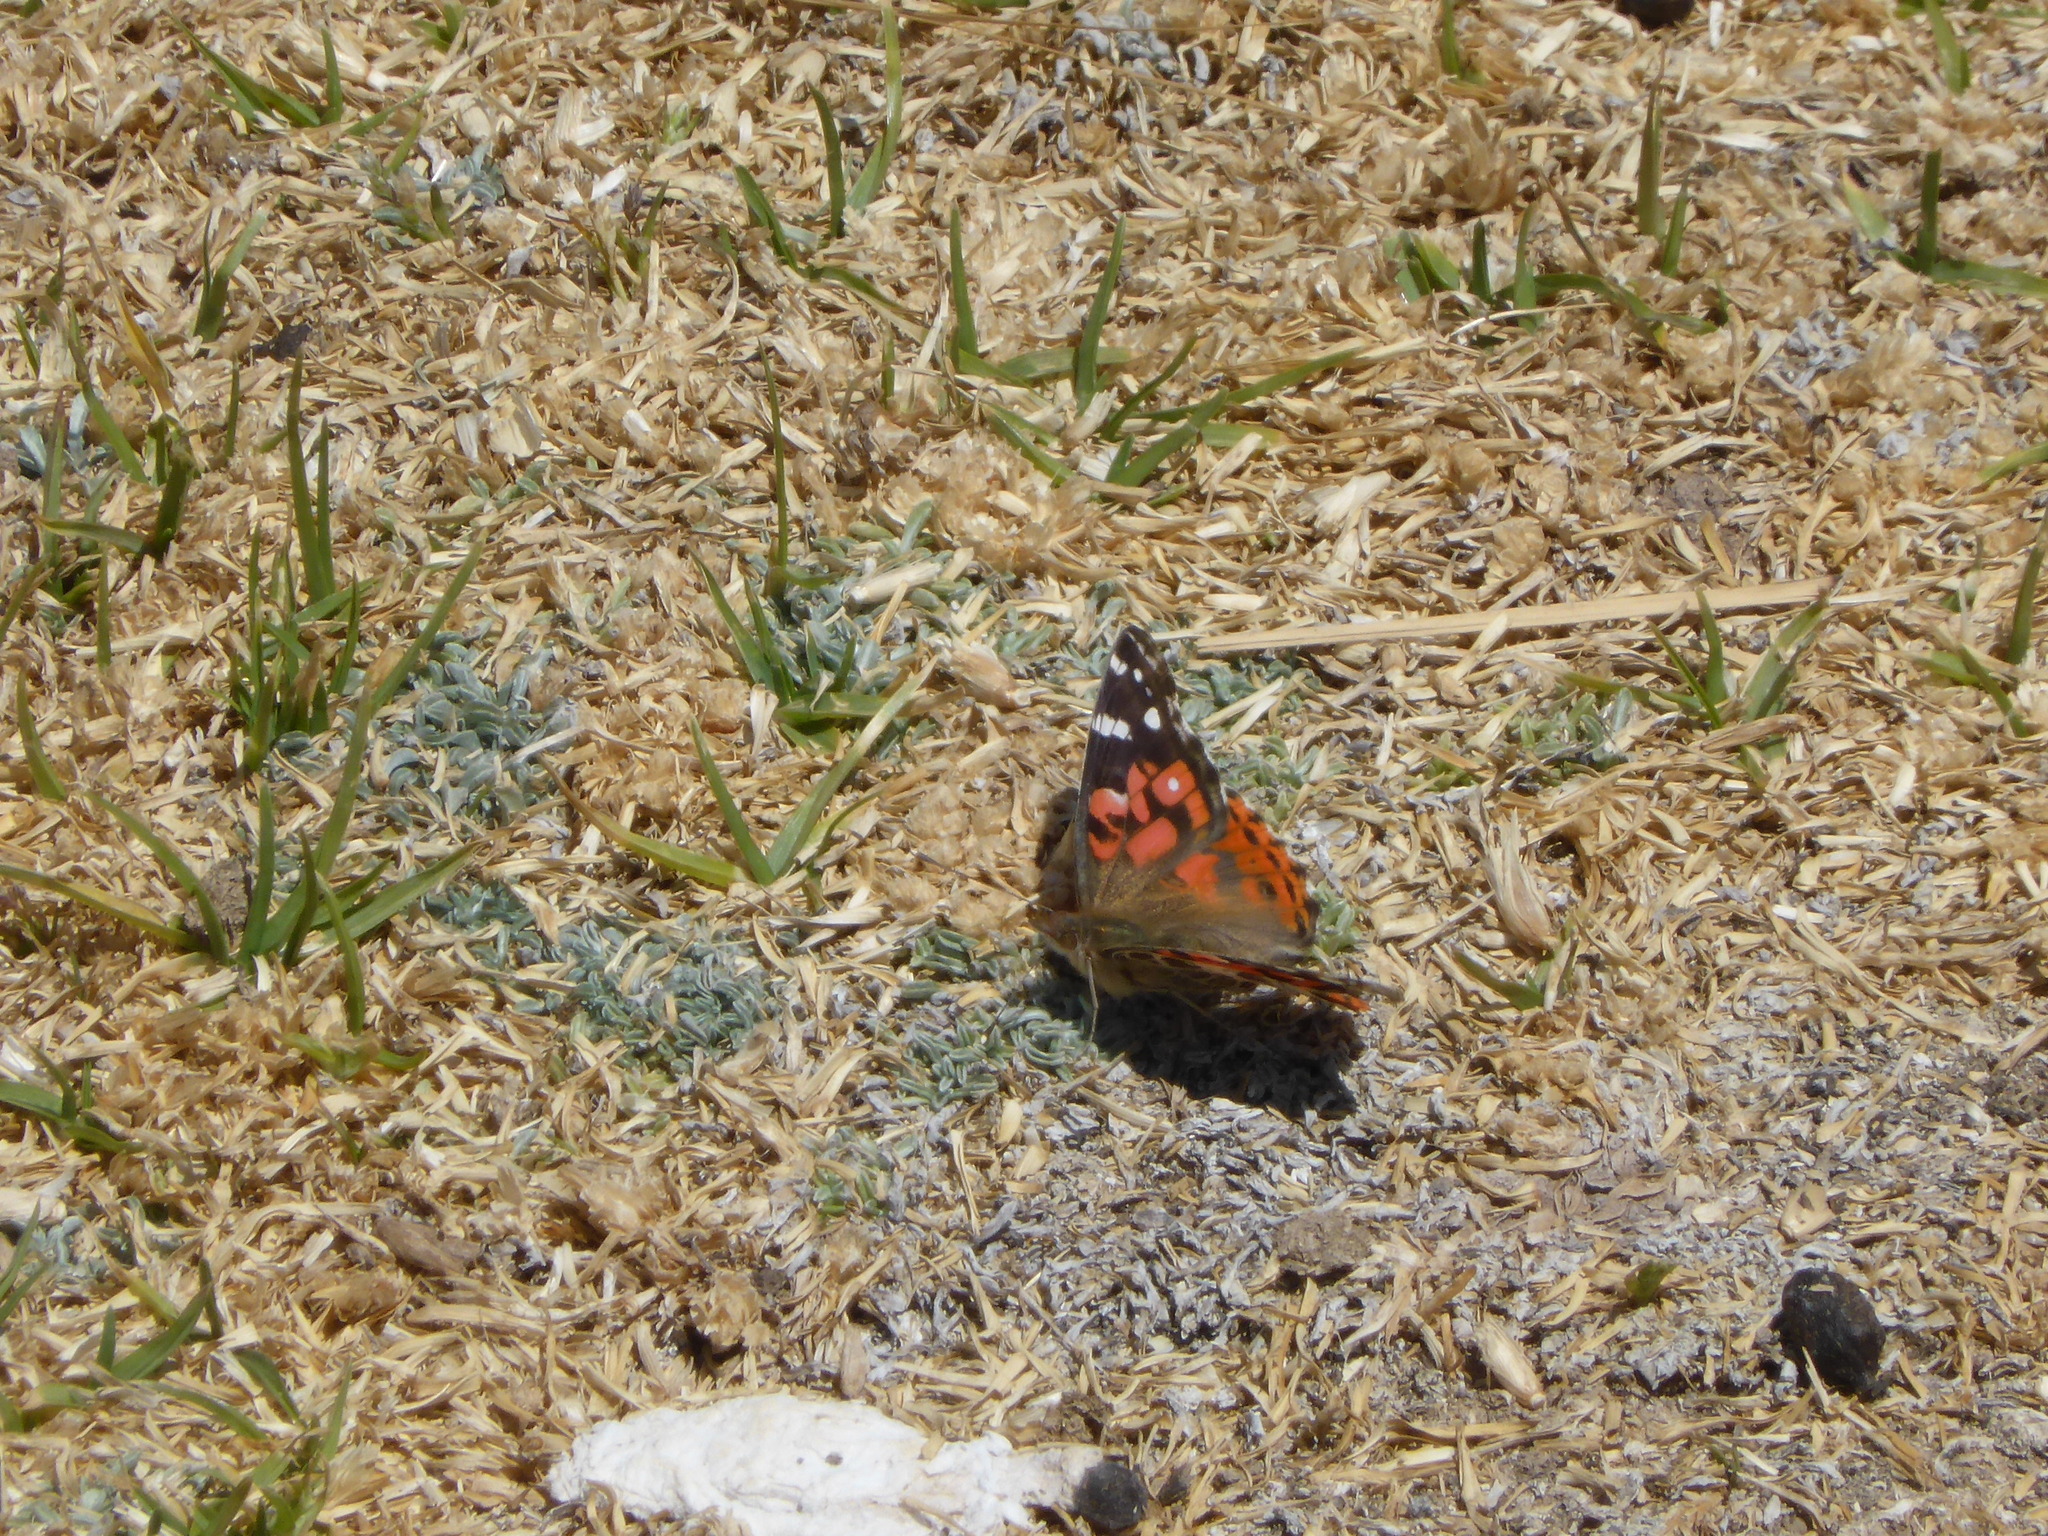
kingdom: Animalia
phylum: Arthropoda
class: Insecta
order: Lepidoptera
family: Nymphalidae
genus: Vanessa
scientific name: Vanessa braziliensis
